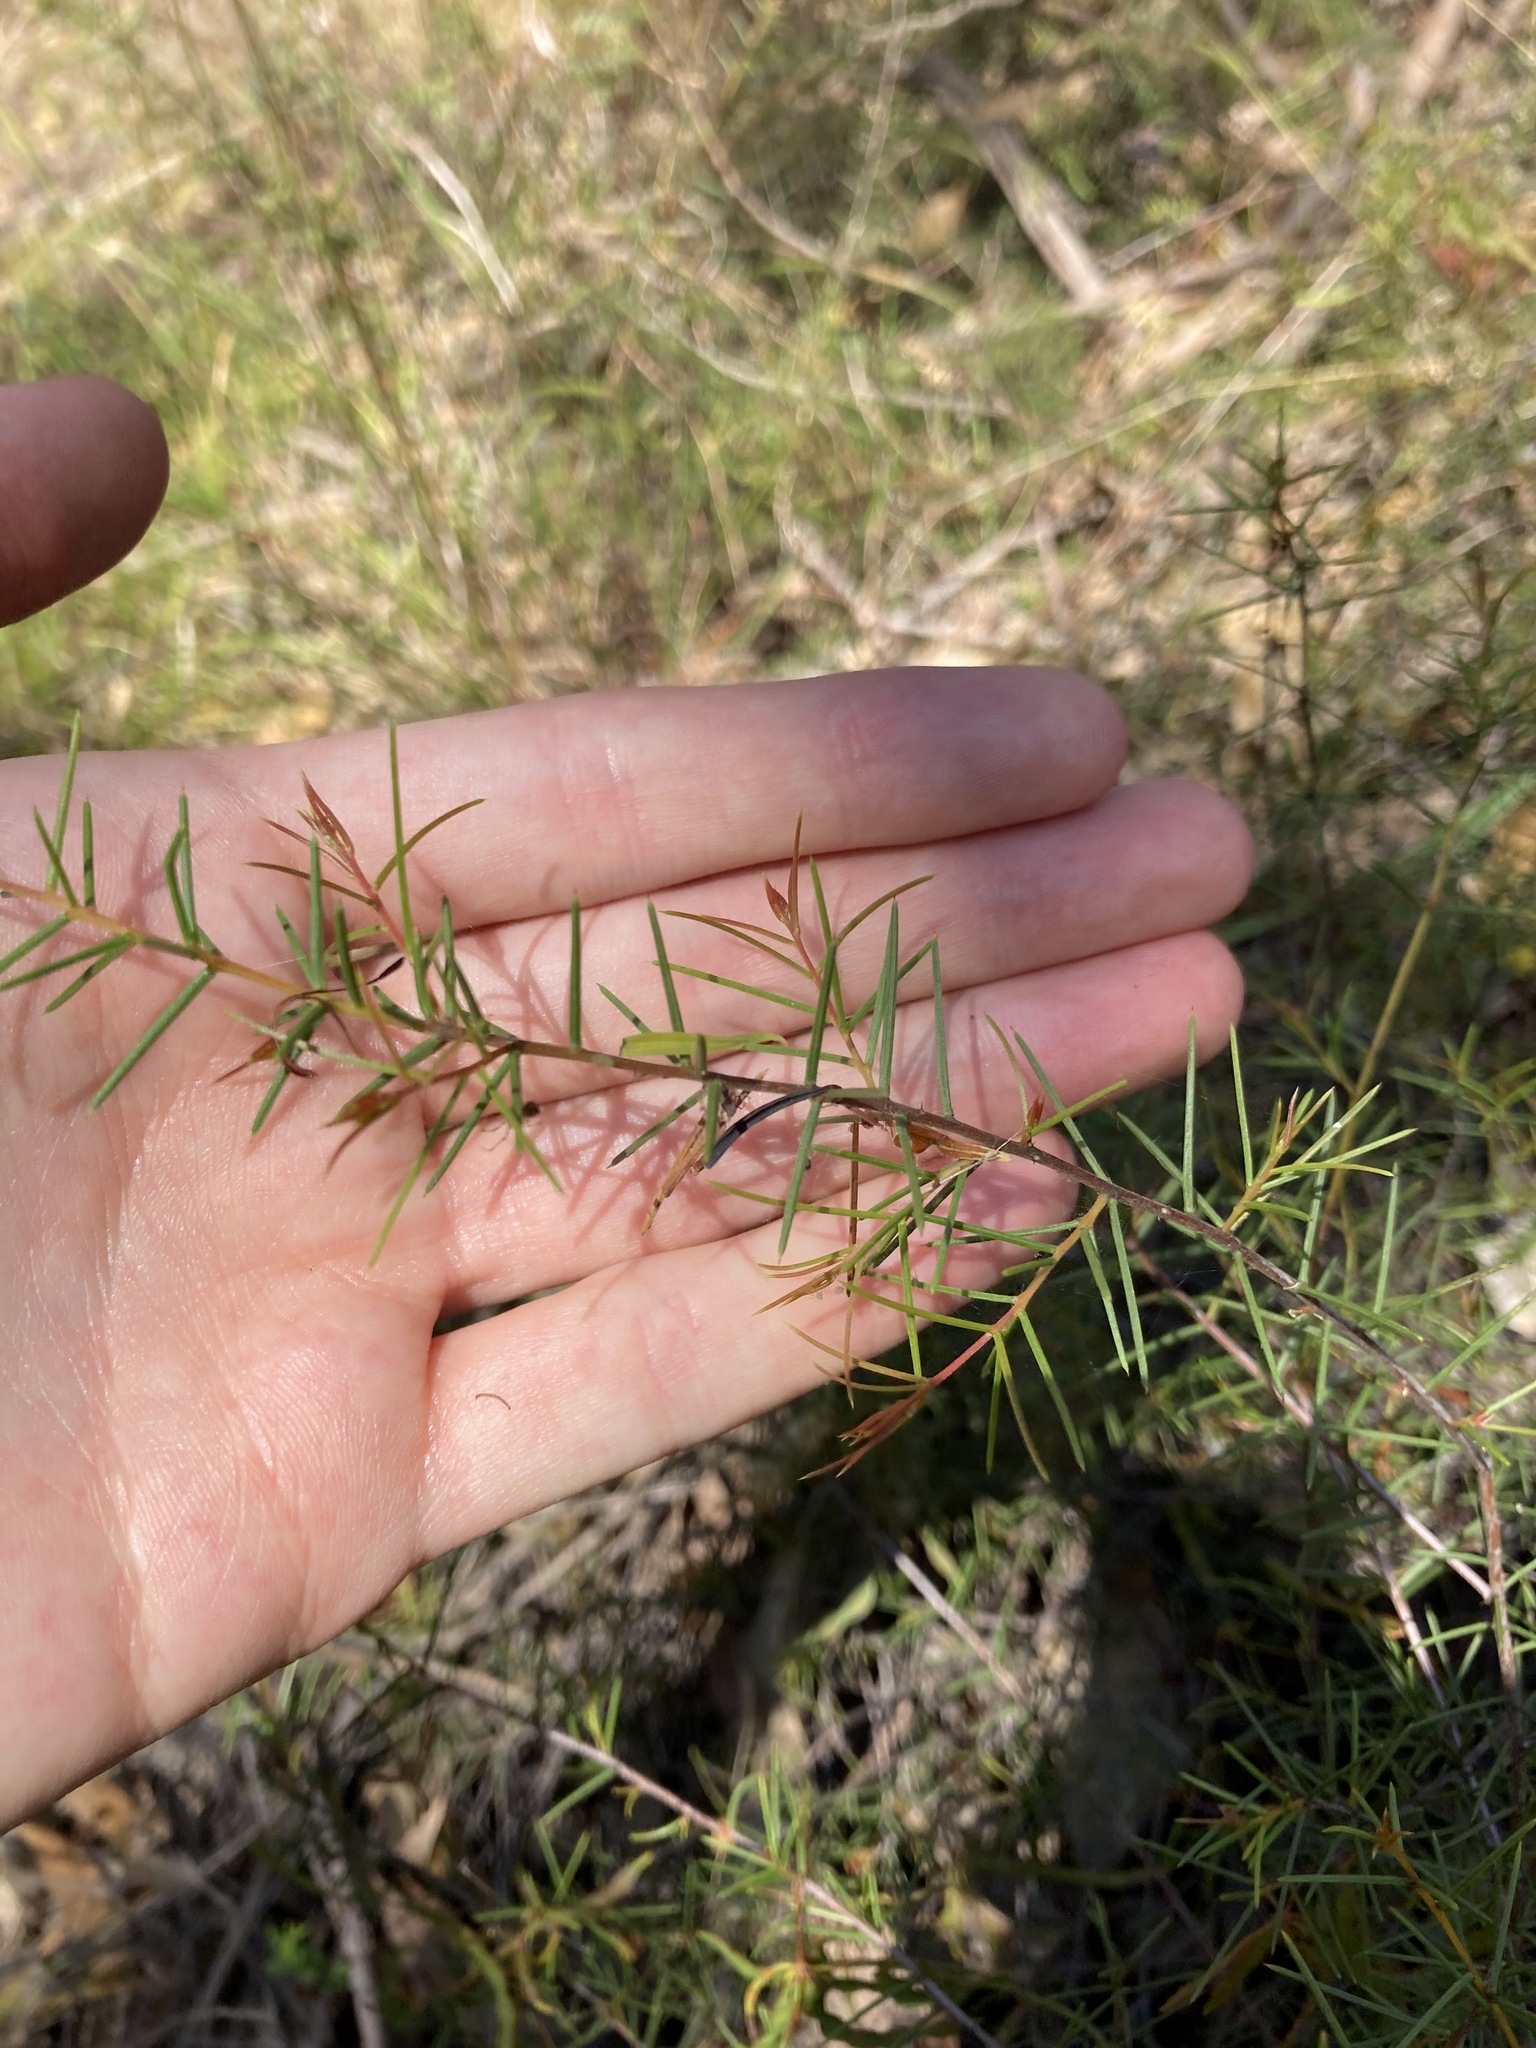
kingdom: Plantae
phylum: Tracheophyta
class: Magnoliopsida
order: Fabales
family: Fabaceae
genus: Acacia
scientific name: Acacia brownii
